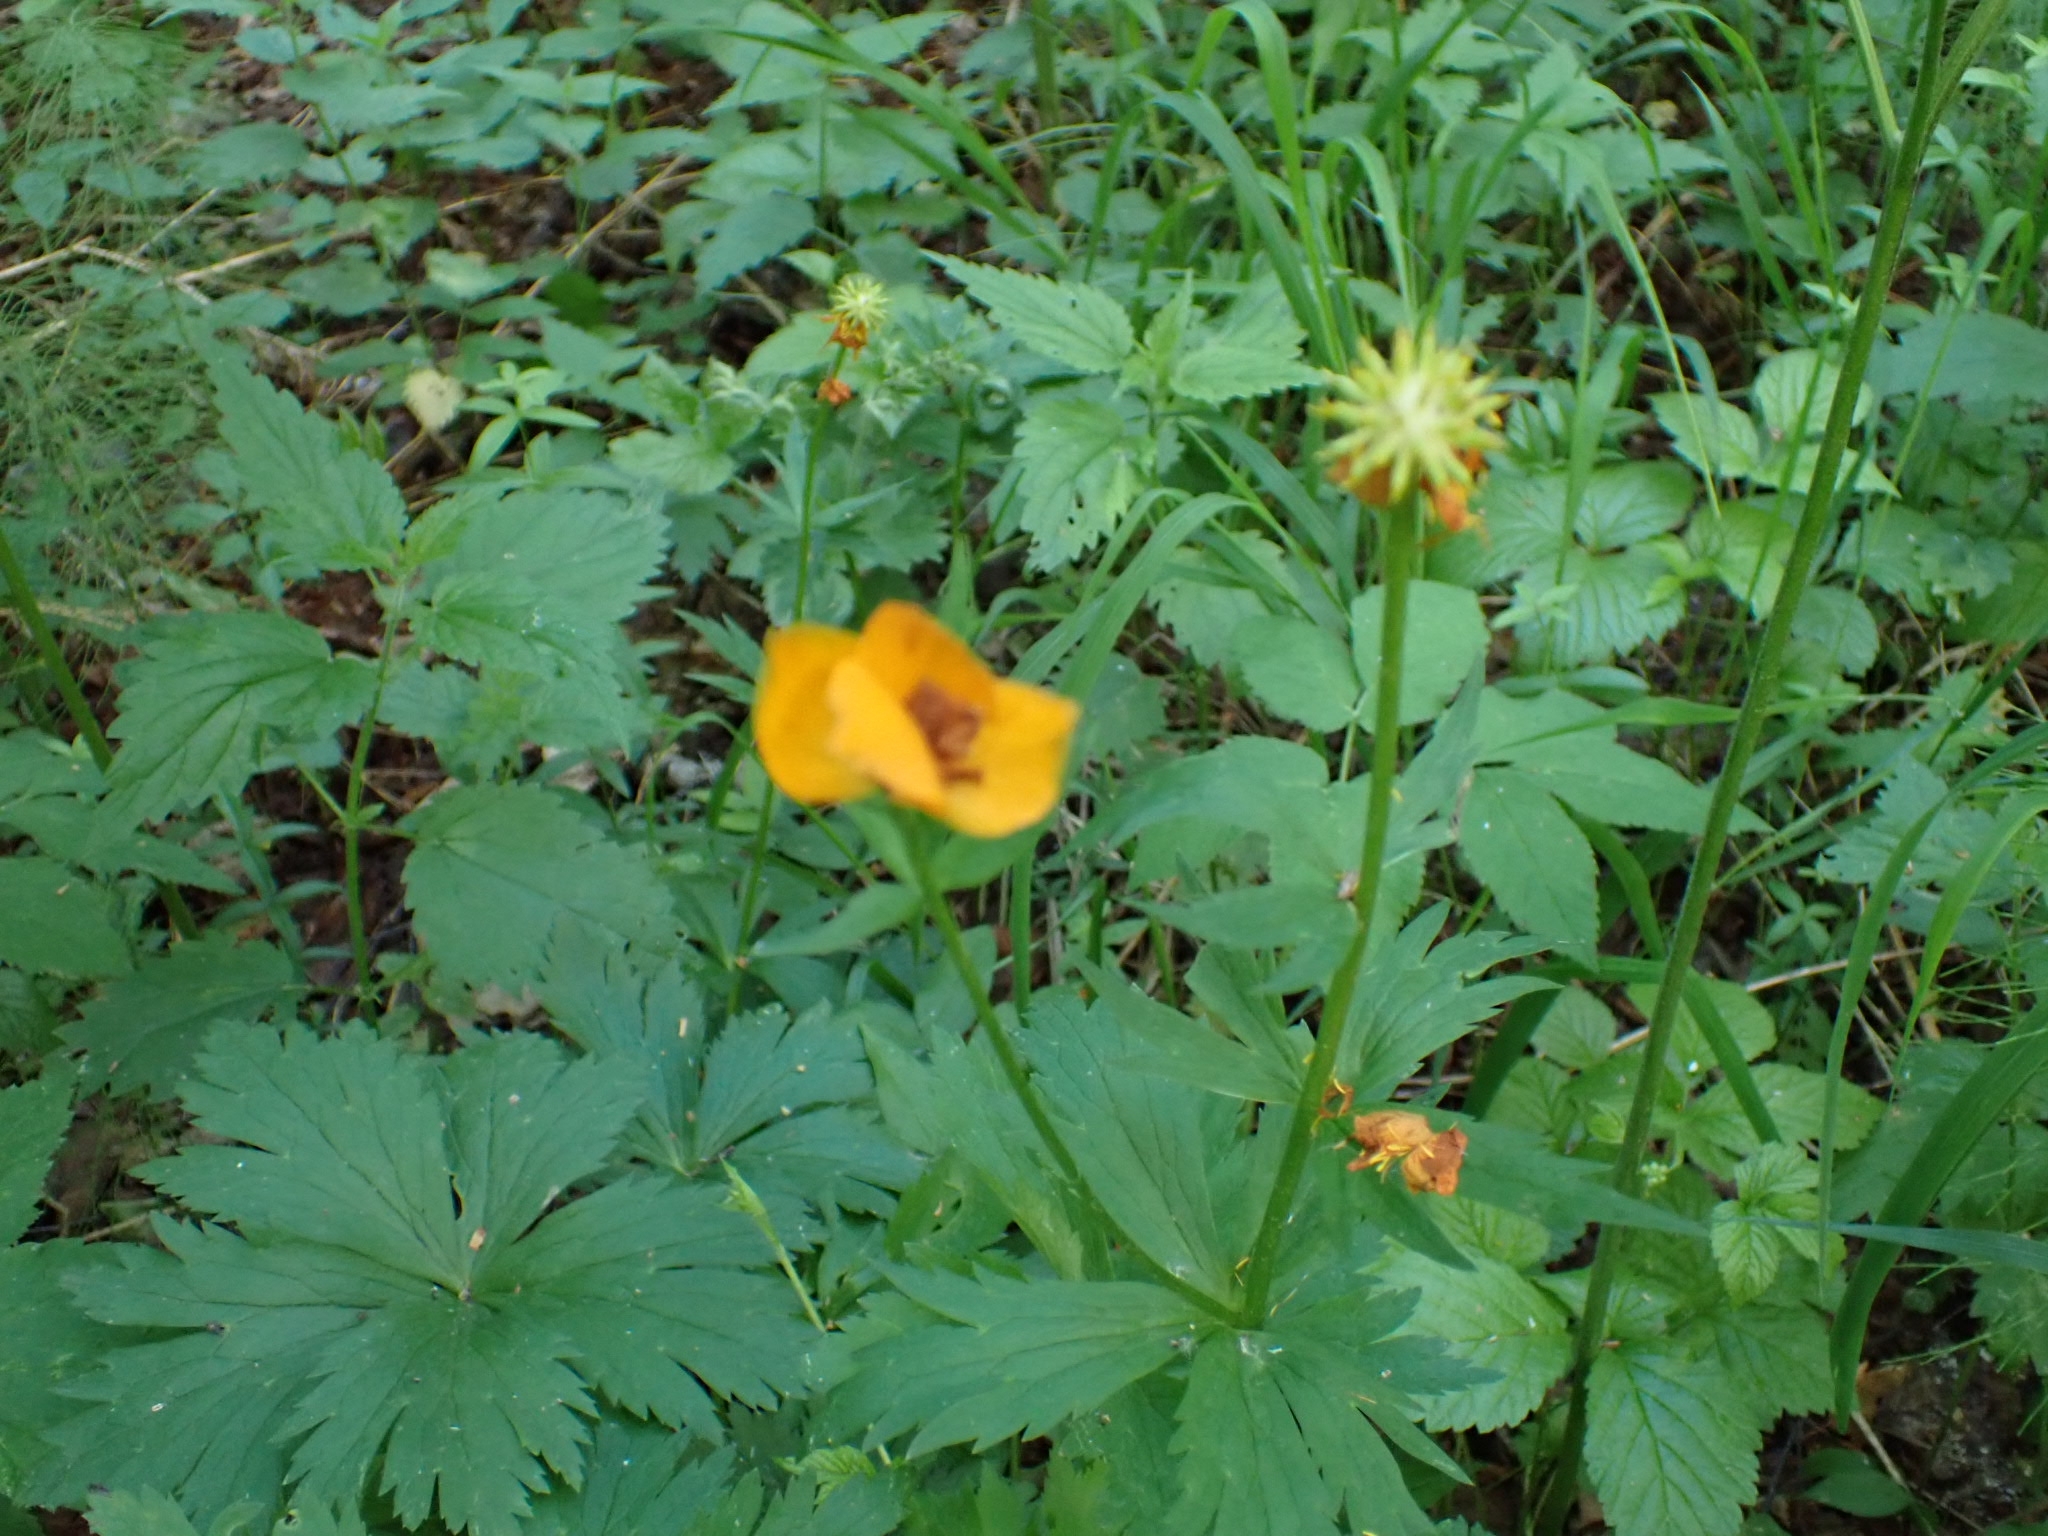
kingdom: Plantae
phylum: Tracheophyta
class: Magnoliopsida
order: Ranunculales
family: Ranunculaceae
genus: Trollius
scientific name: Trollius asiaticus
